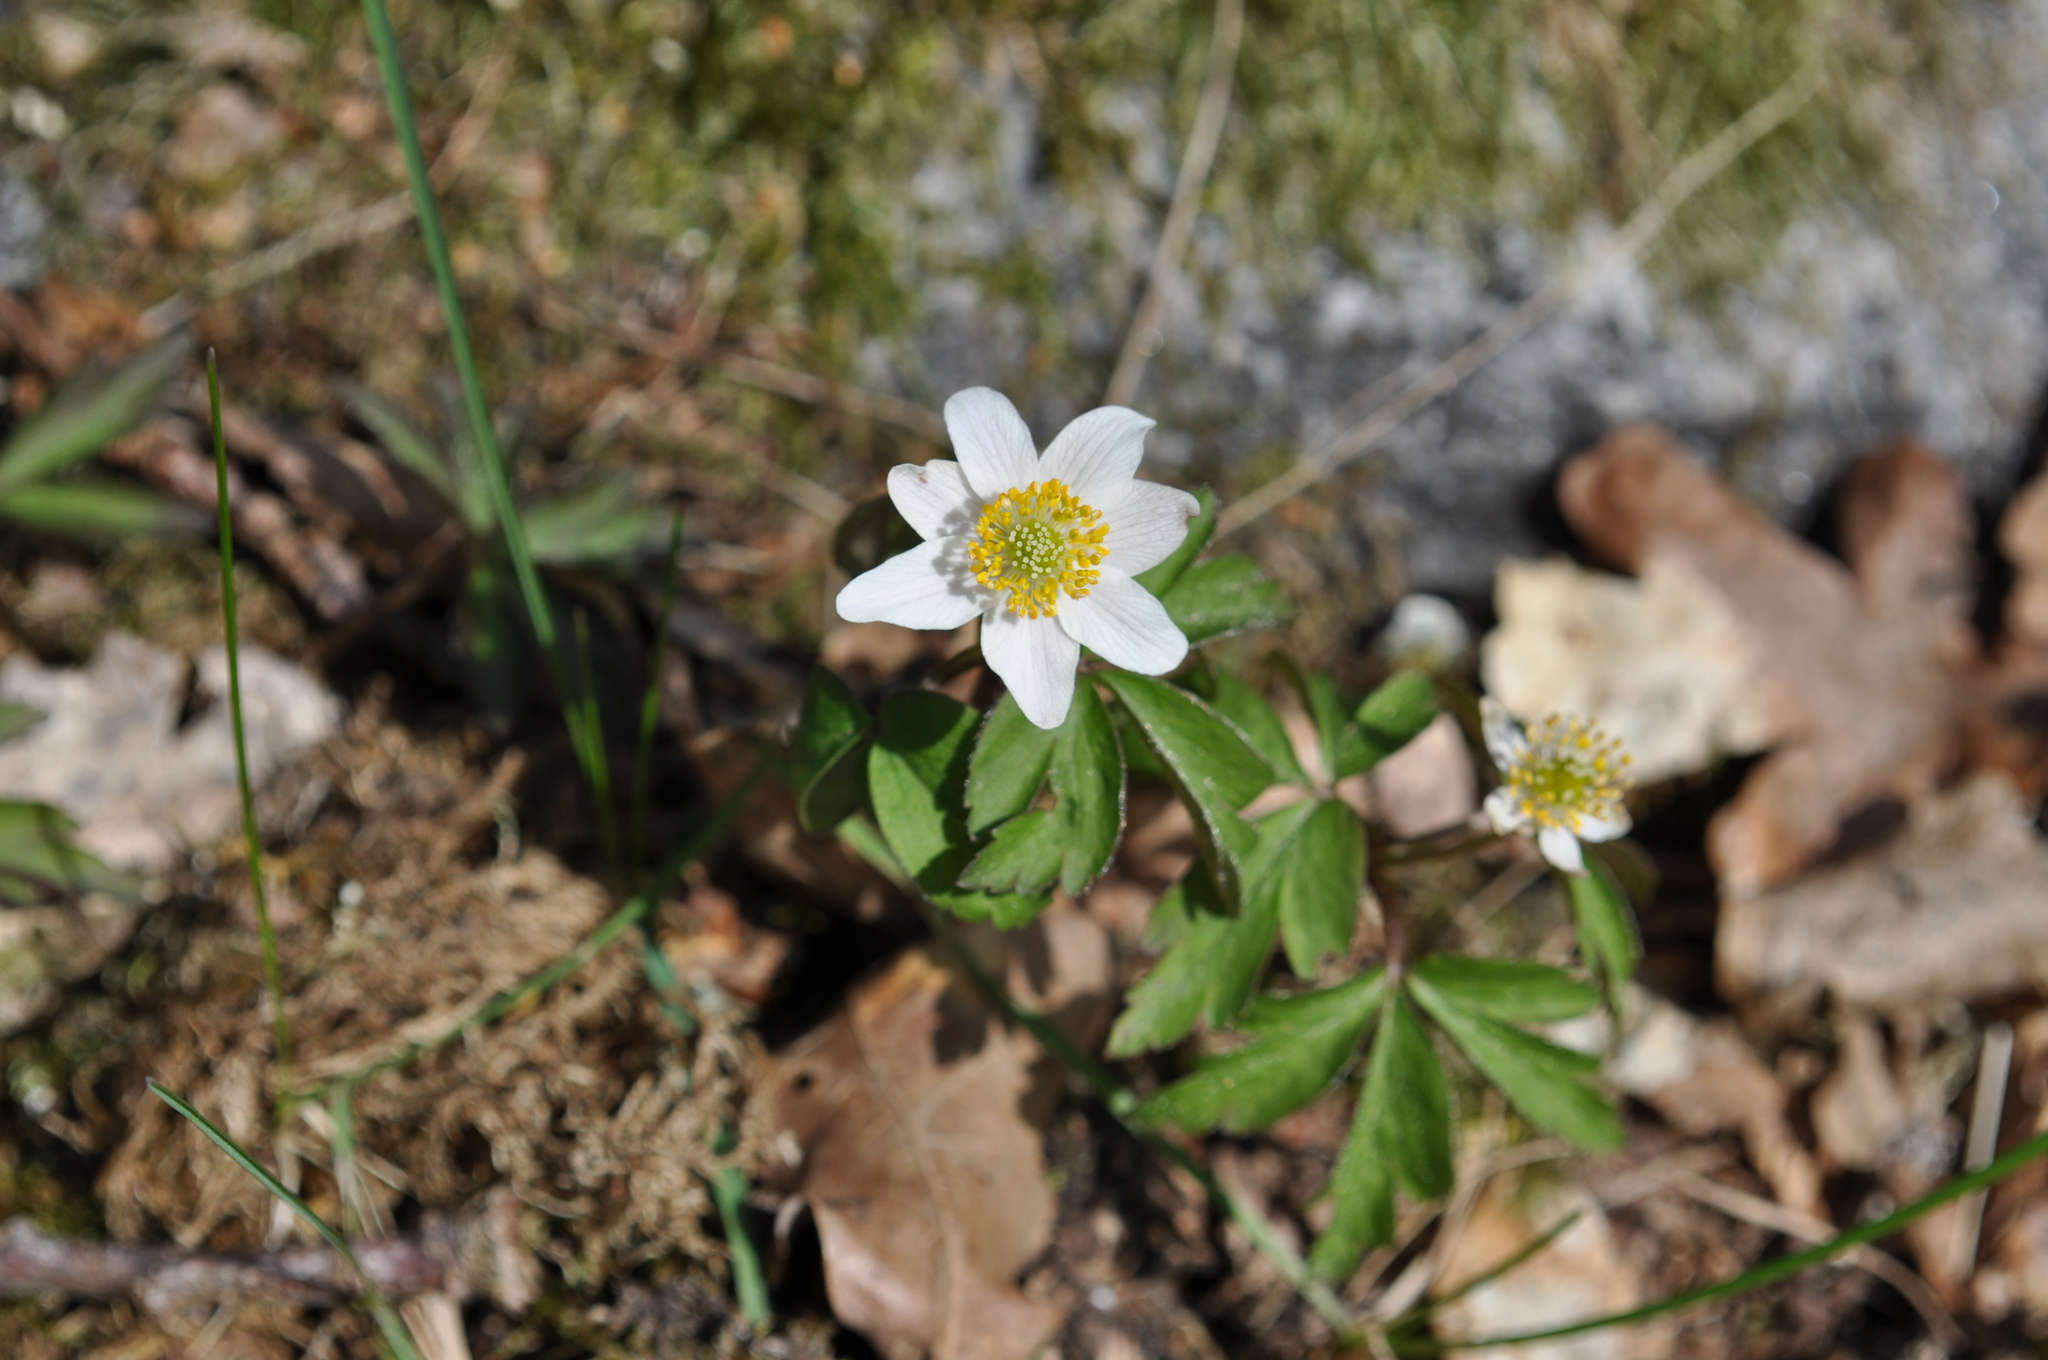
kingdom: Plantae
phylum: Tracheophyta
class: Magnoliopsida
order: Ranunculales
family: Ranunculaceae
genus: Anemone
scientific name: Anemone nemorosa
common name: Wood anemone
